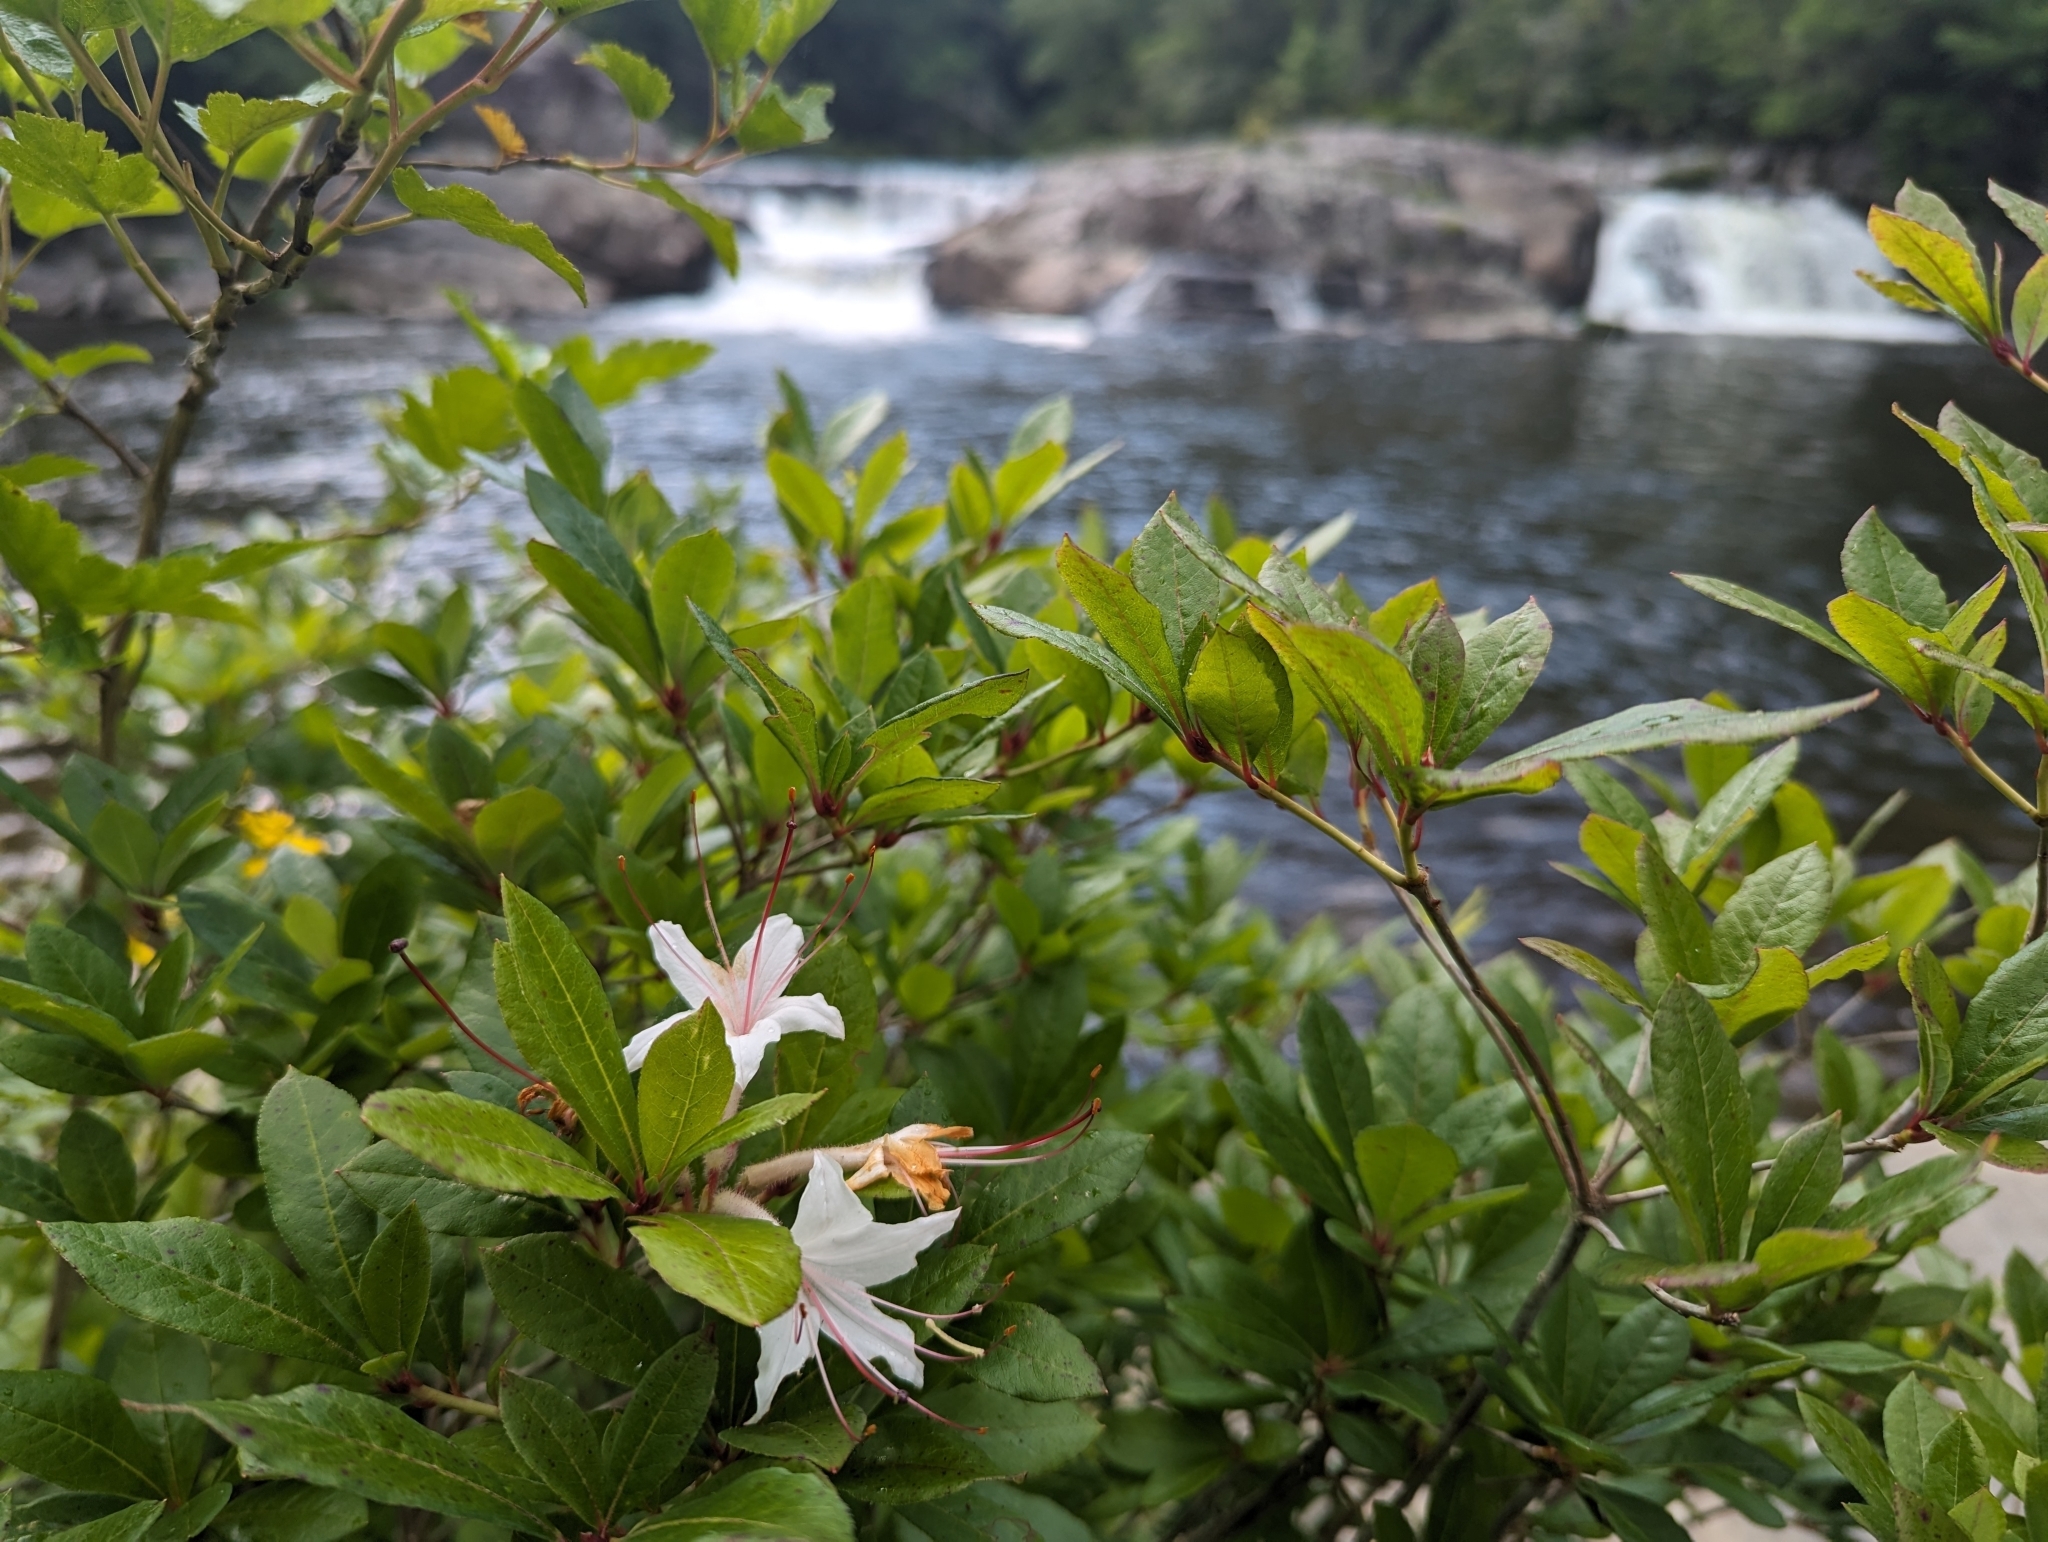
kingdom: Plantae
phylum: Tracheophyta
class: Magnoliopsida
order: Ericales
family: Ericaceae
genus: Rhododendron
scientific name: Rhododendron viscosum
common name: Clammy azalea
